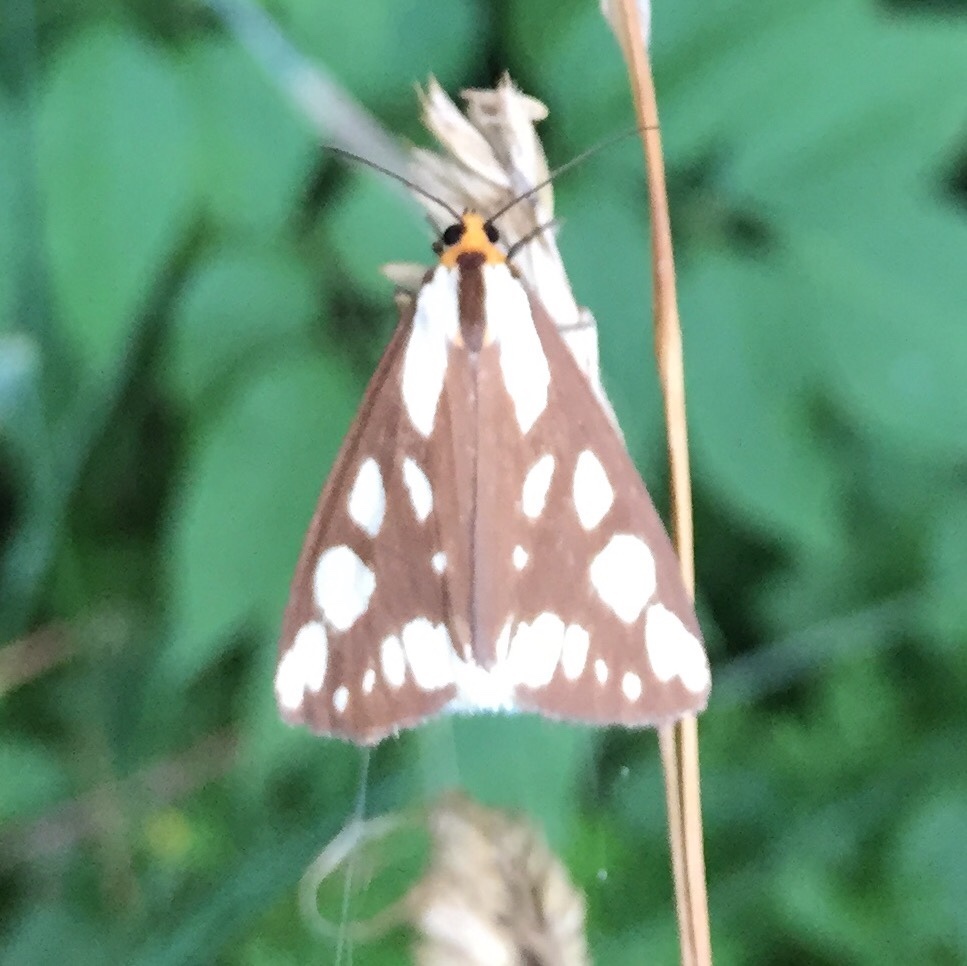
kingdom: Animalia
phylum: Arthropoda
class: Insecta
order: Lepidoptera
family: Erebidae
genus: Haploa
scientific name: Haploa confusa
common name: Confused haploa moth
